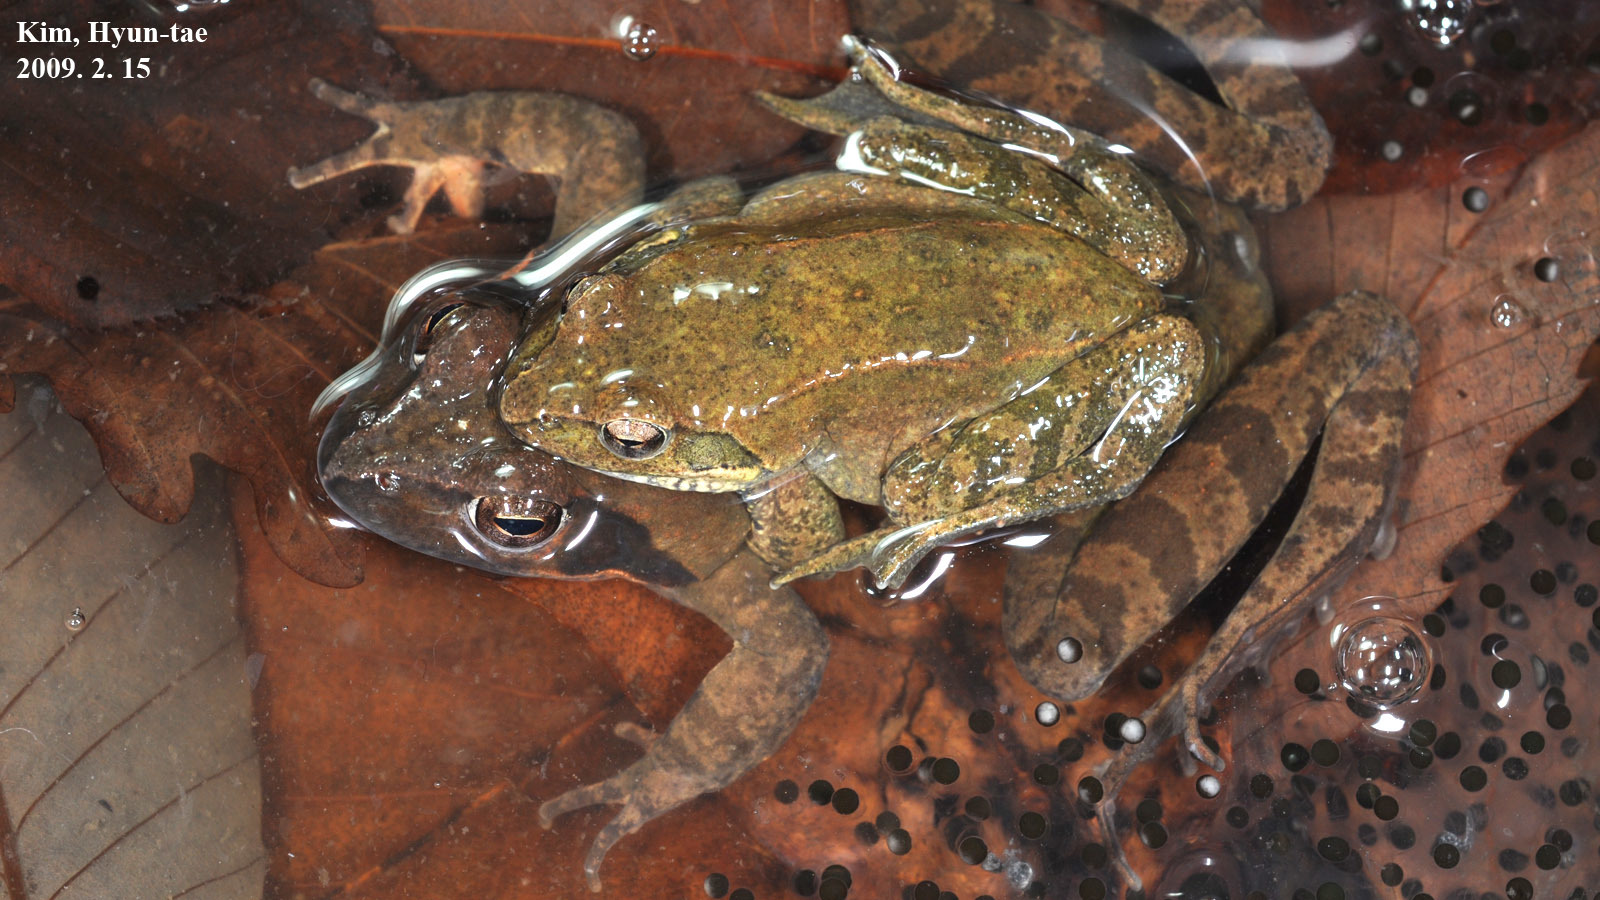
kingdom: Animalia
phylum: Chordata
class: Amphibia
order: Anura
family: Ranidae
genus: Rana
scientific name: Rana huanrenensis
